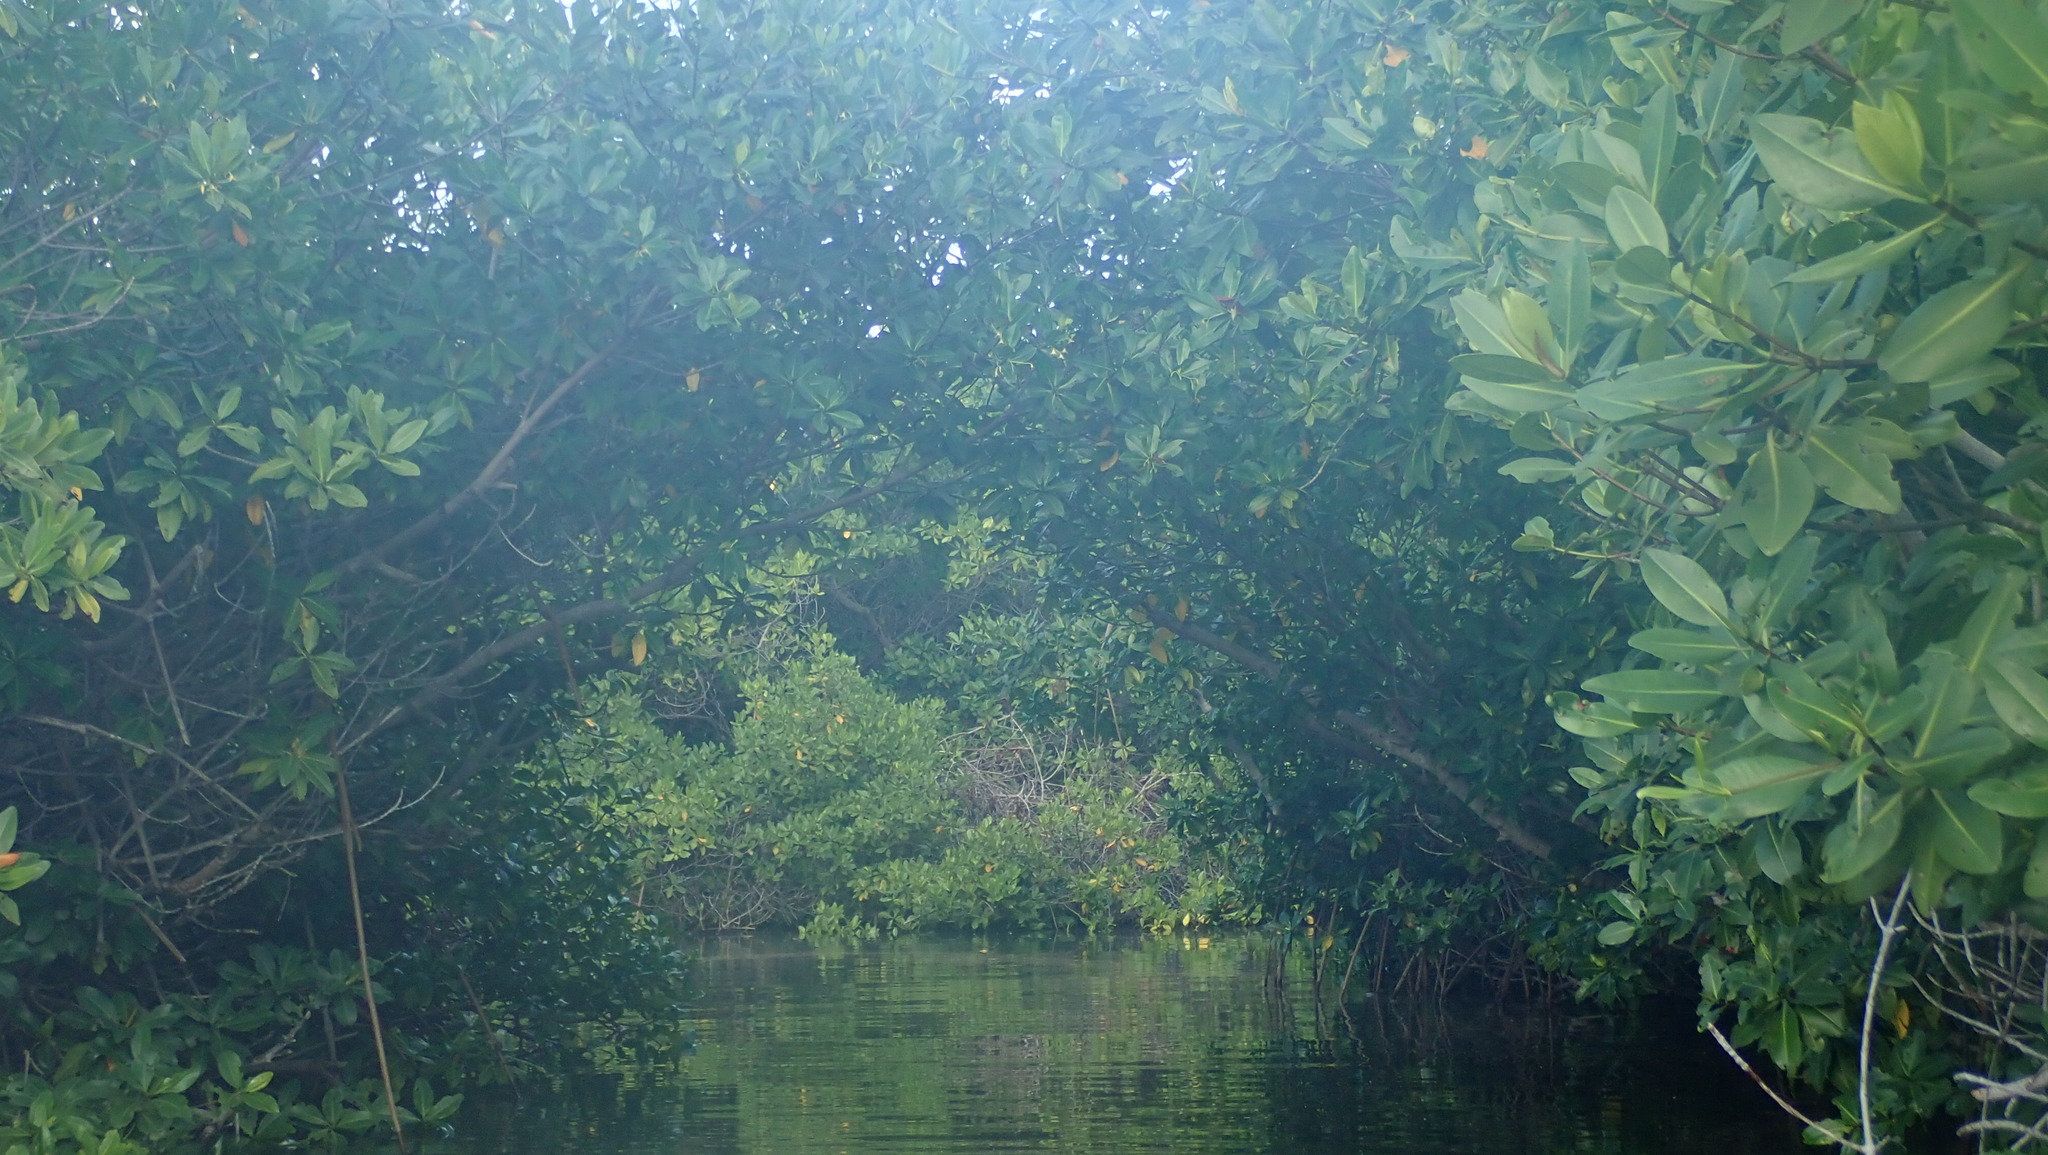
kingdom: Plantae
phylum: Tracheophyta
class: Magnoliopsida
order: Malpighiales
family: Rhizophoraceae
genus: Rhizophora
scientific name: Rhizophora mangle
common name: Red mangrove
